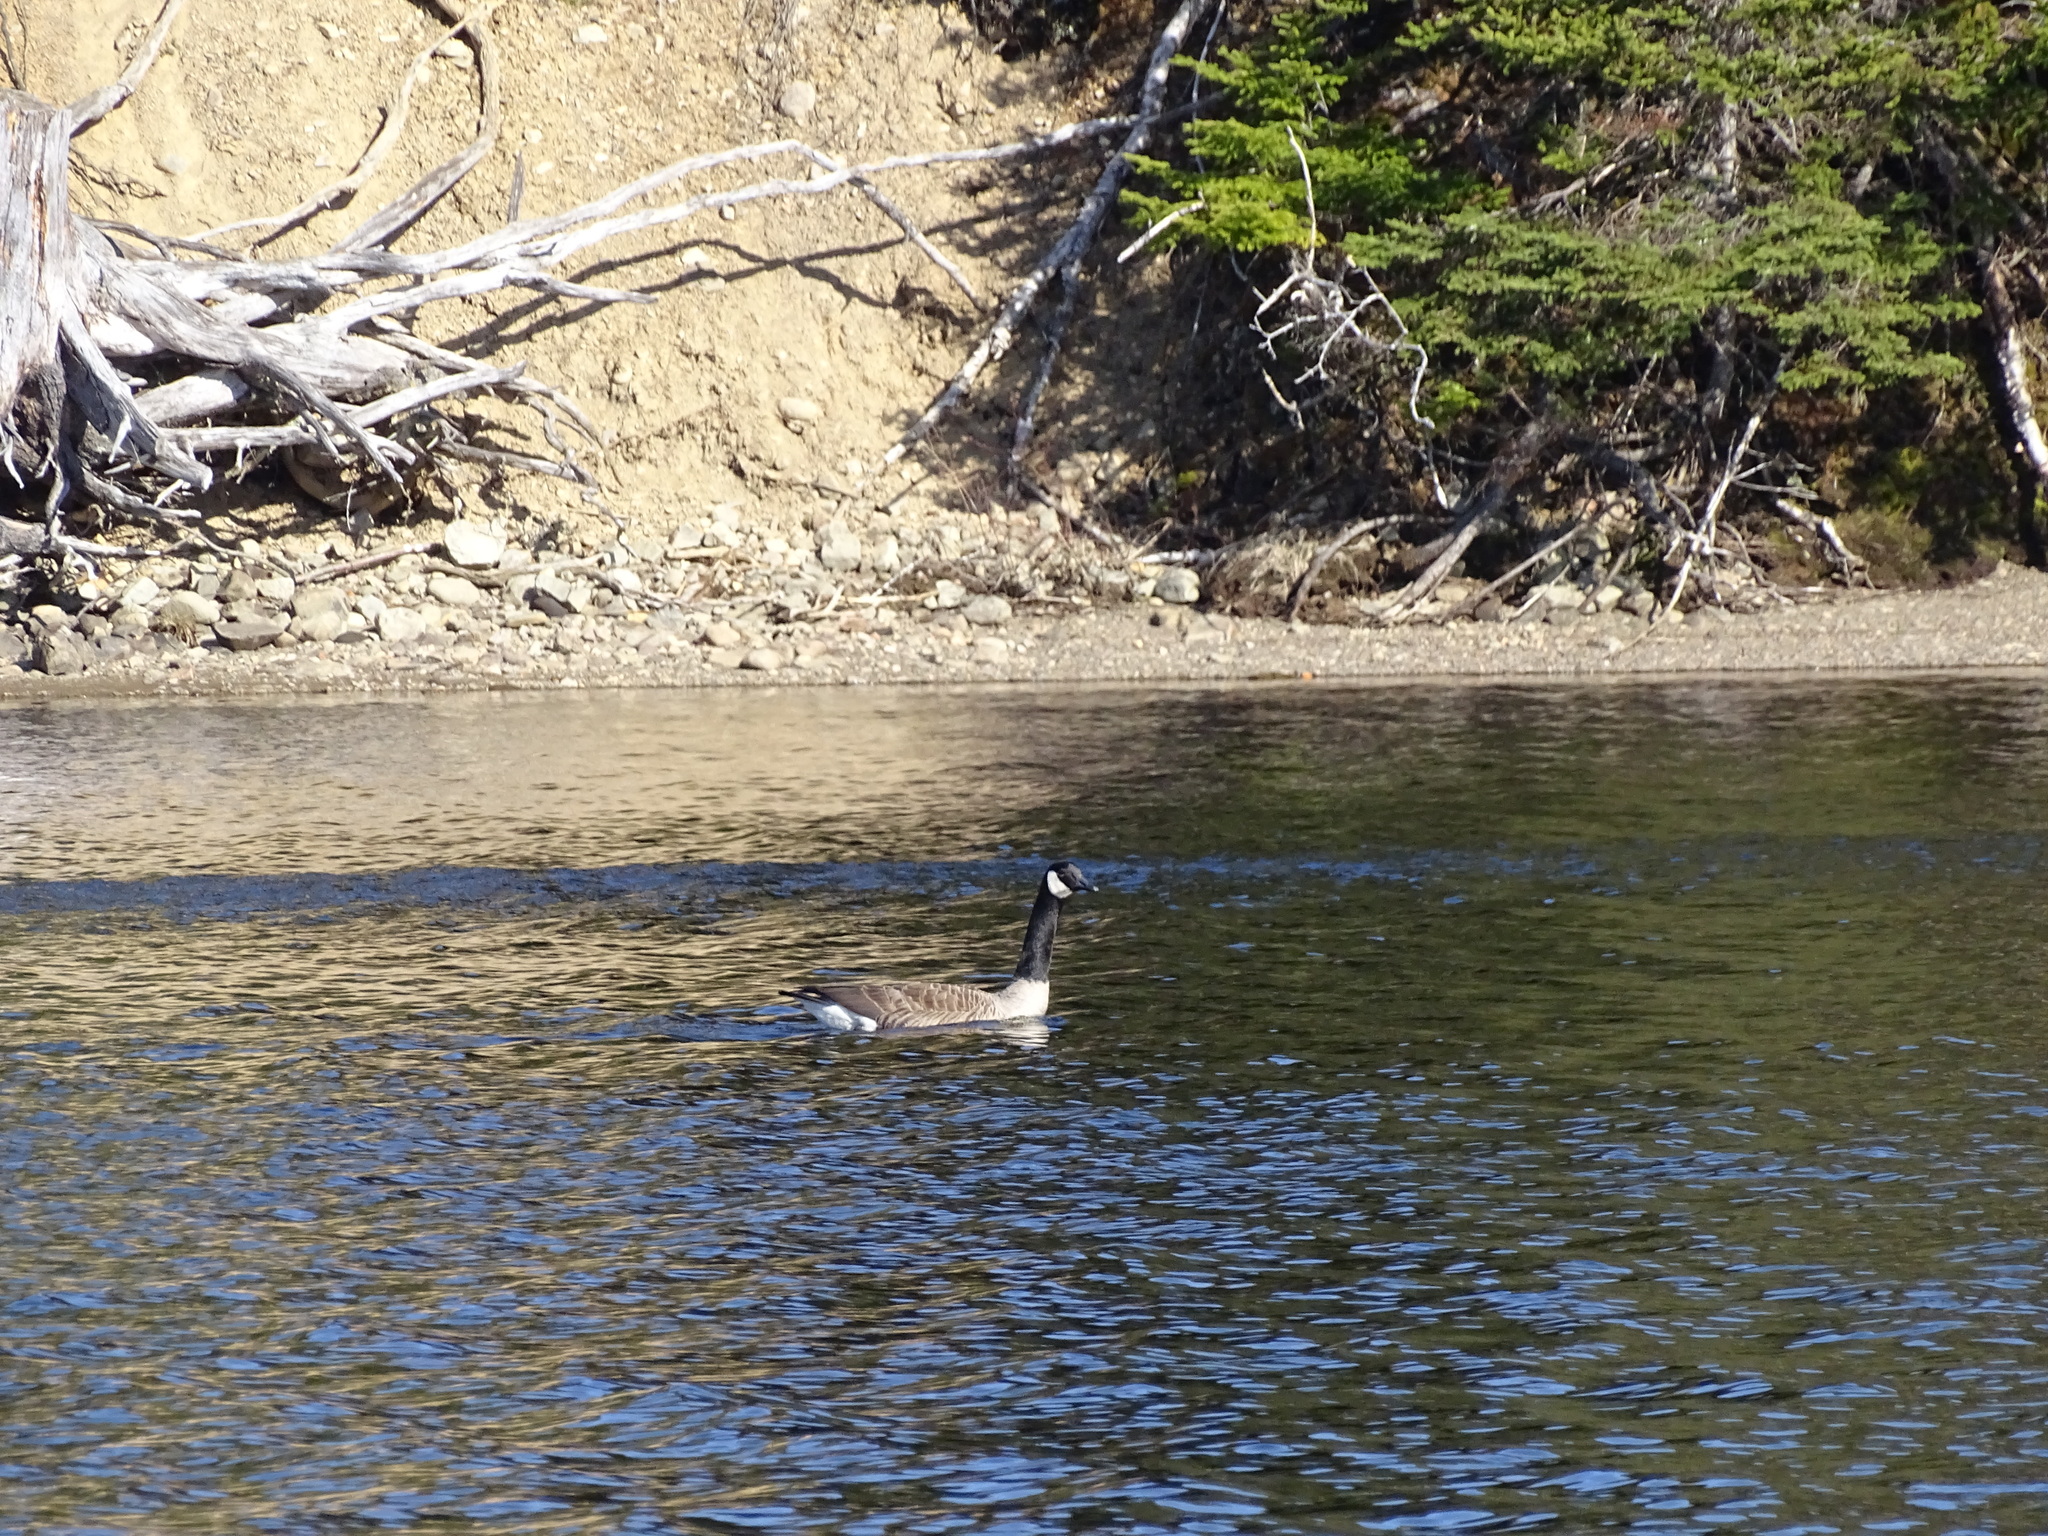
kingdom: Animalia
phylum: Chordata
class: Aves
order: Anseriformes
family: Anatidae
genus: Branta
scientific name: Branta canadensis
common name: Canada goose
